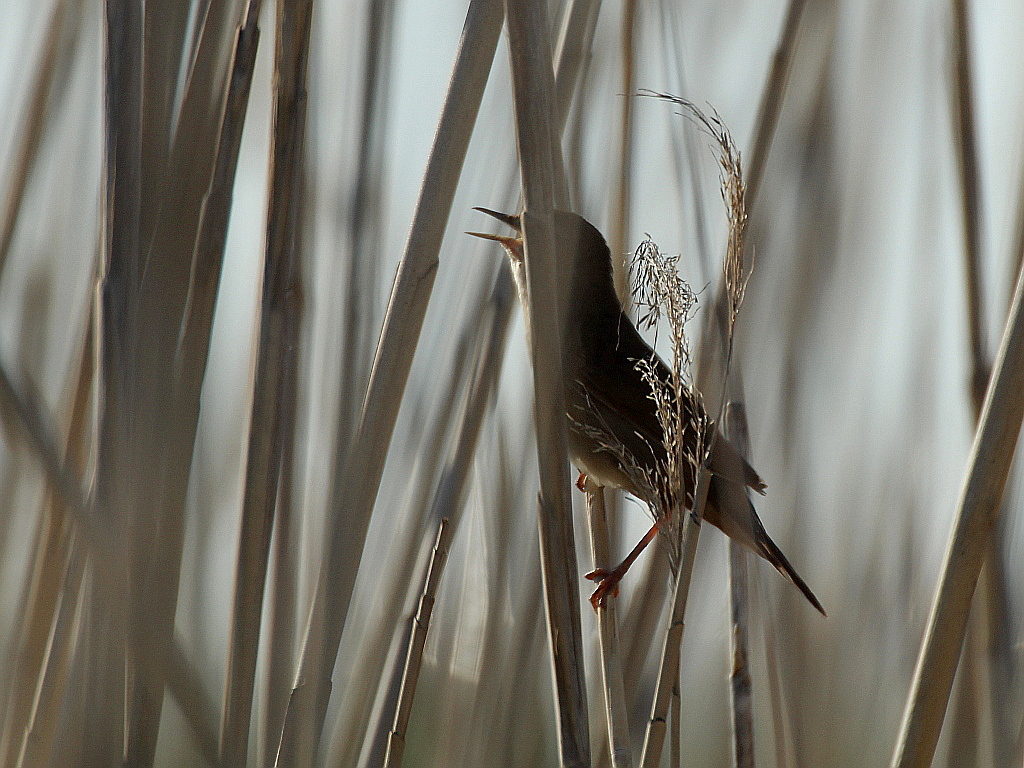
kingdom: Animalia
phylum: Chordata
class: Aves
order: Passeriformes
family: Locustellidae
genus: Locustella
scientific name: Locustella luscinioides
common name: Savi's warbler
